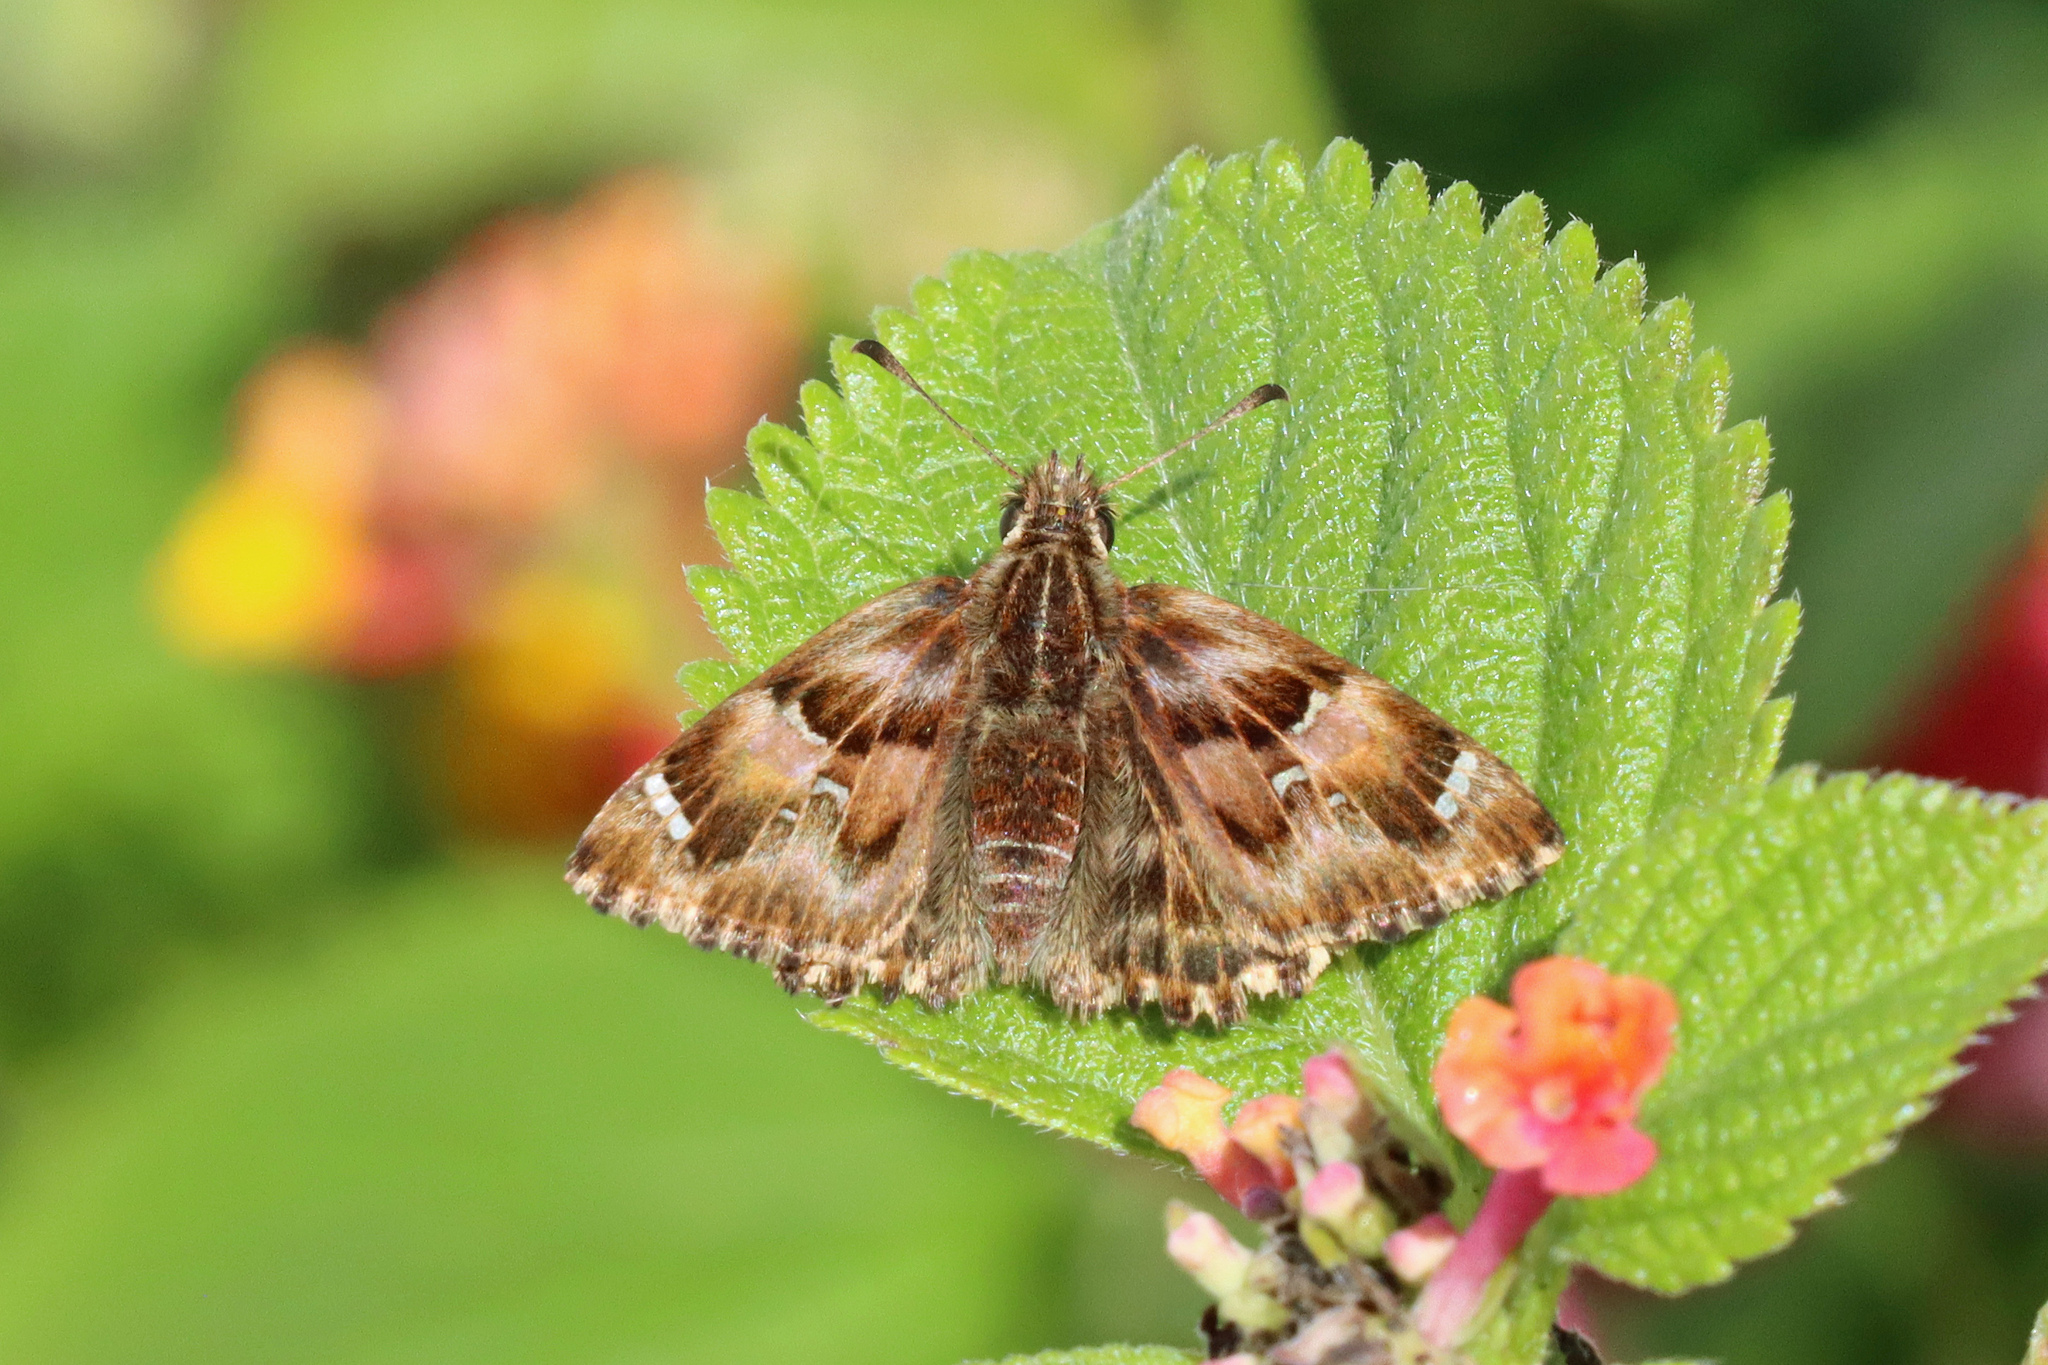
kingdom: Animalia
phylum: Arthropoda
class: Insecta
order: Lepidoptera
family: Hesperiidae
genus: Carcharodus
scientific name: Carcharodus alceae
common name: Mallow skipper
